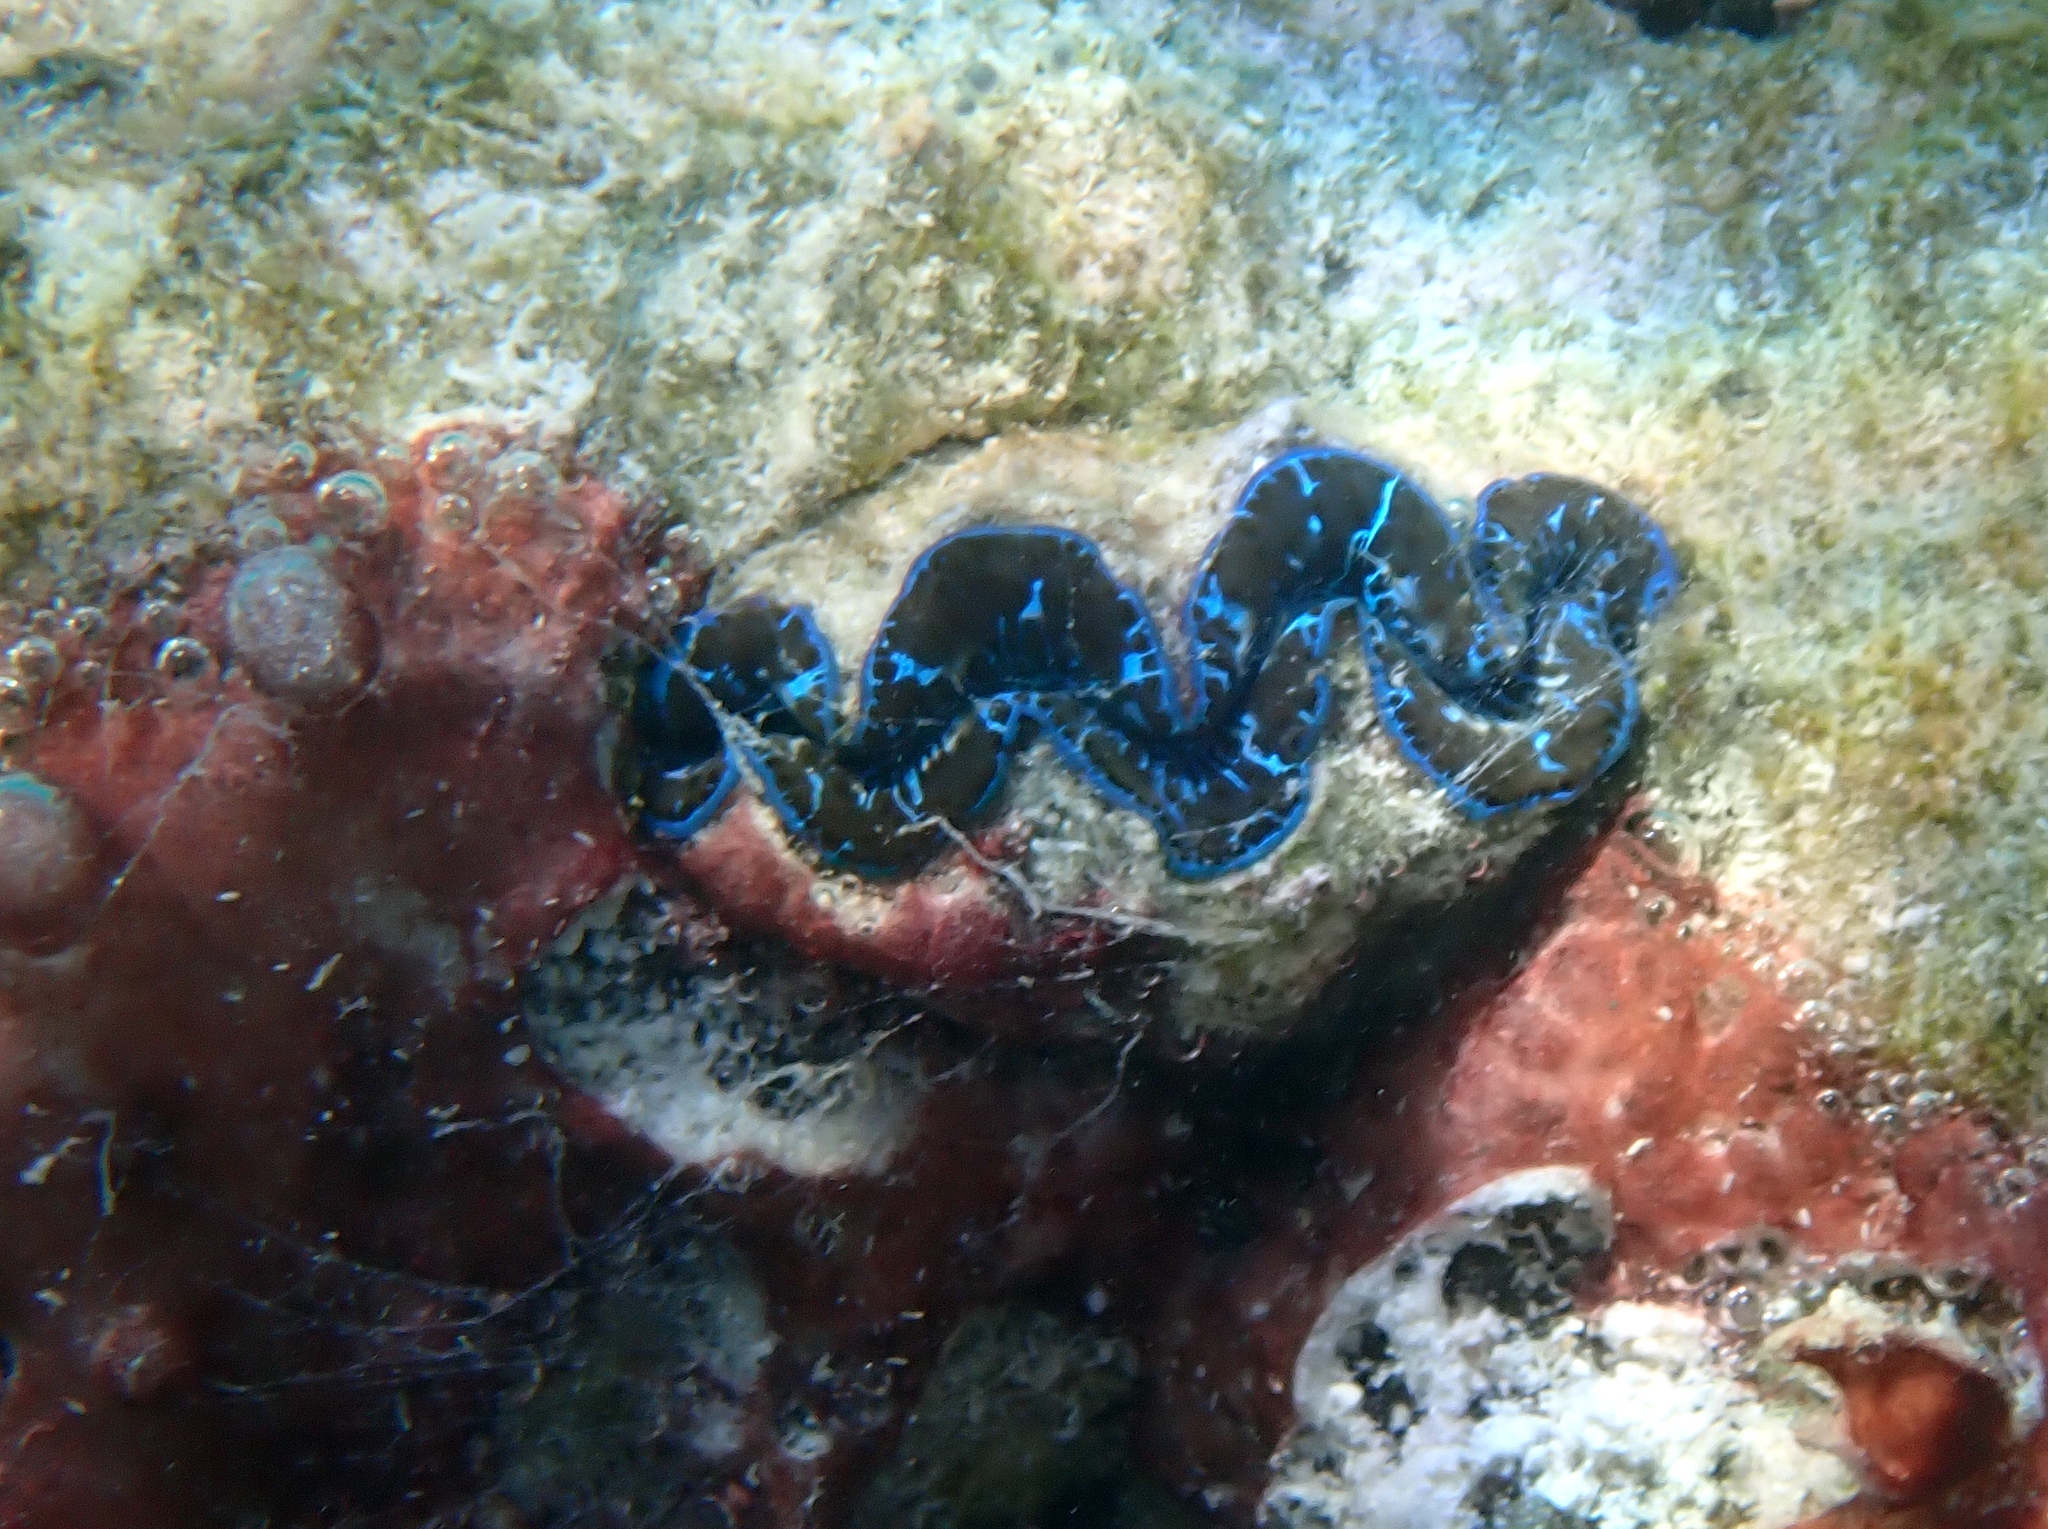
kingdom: Animalia
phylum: Mollusca
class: Bivalvia
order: Cardiida
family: Cardiidae
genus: Tridacna
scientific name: Tridacna maxima
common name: Small giant clam
